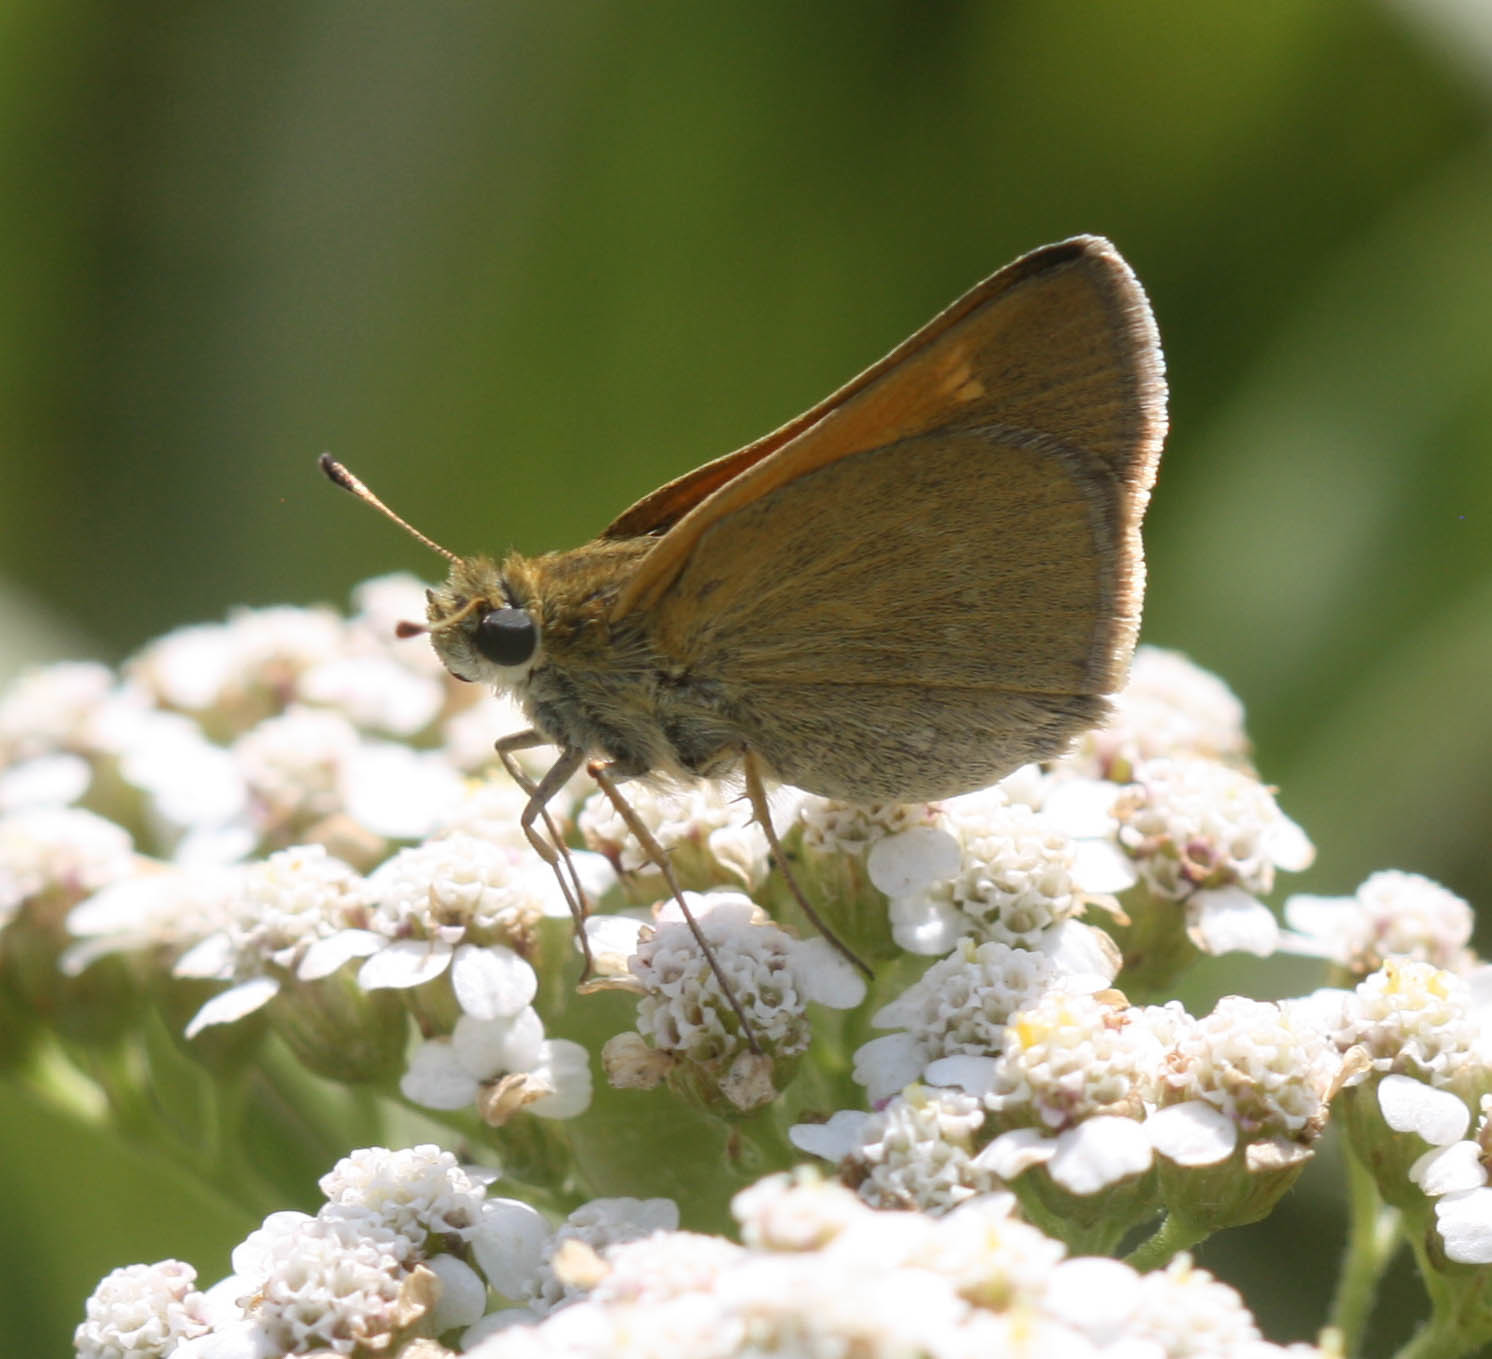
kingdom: Animalia
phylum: Arthropoda
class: Insecta
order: Lepidoptera
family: Hesperiidae
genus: Polites
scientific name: Polites themistocles
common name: Tawny-edged skipper
